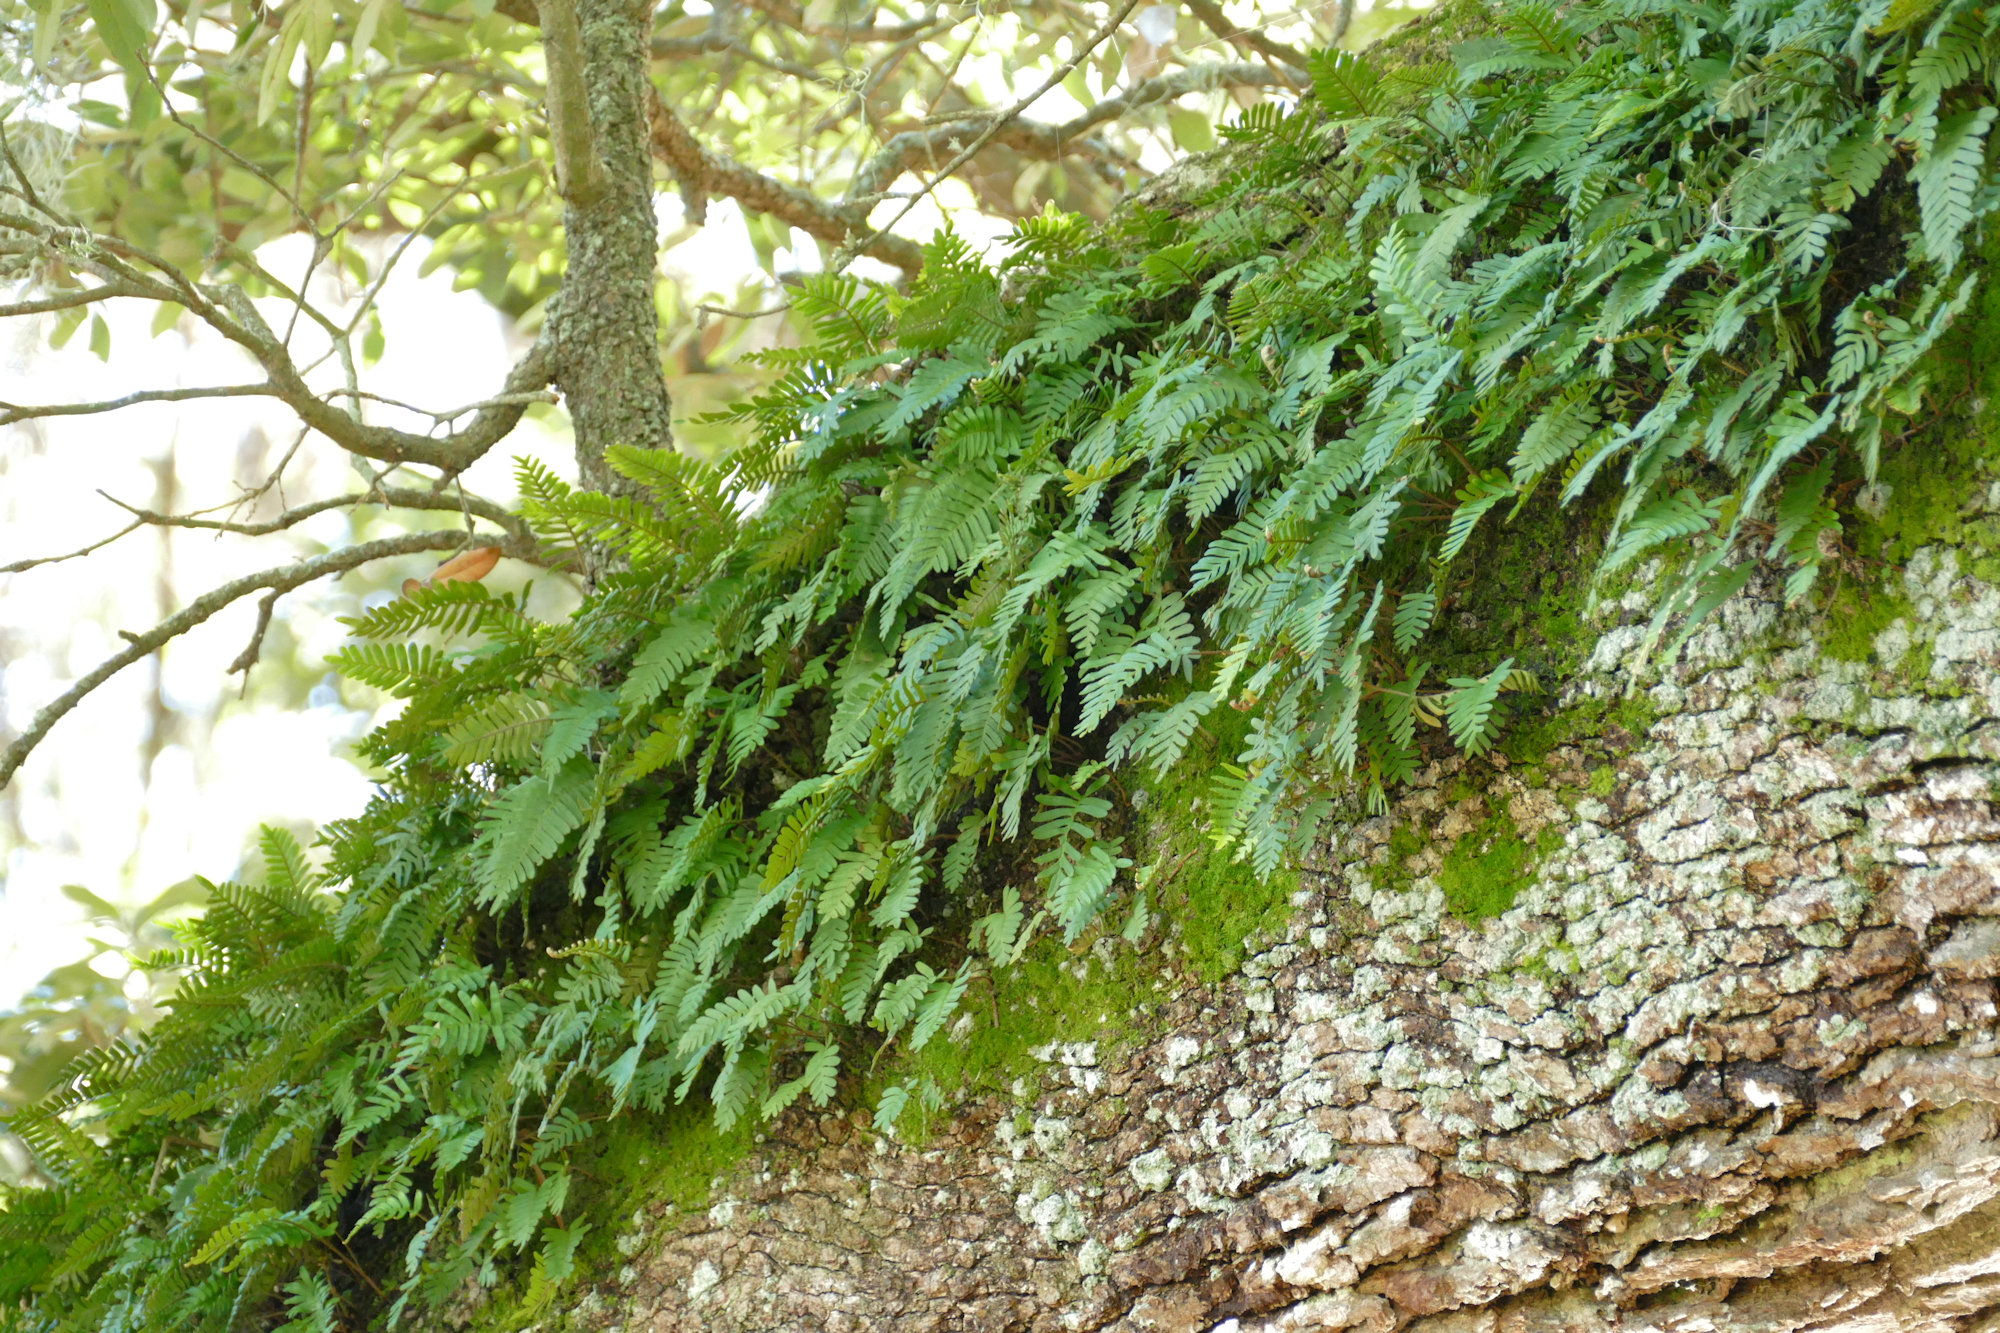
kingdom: Plantae
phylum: Tracheophyta
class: Polypodiopsida
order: Polypodiales
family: Polypodiaceae
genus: Pleopeltis
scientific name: Pleopeltis michauxiana
